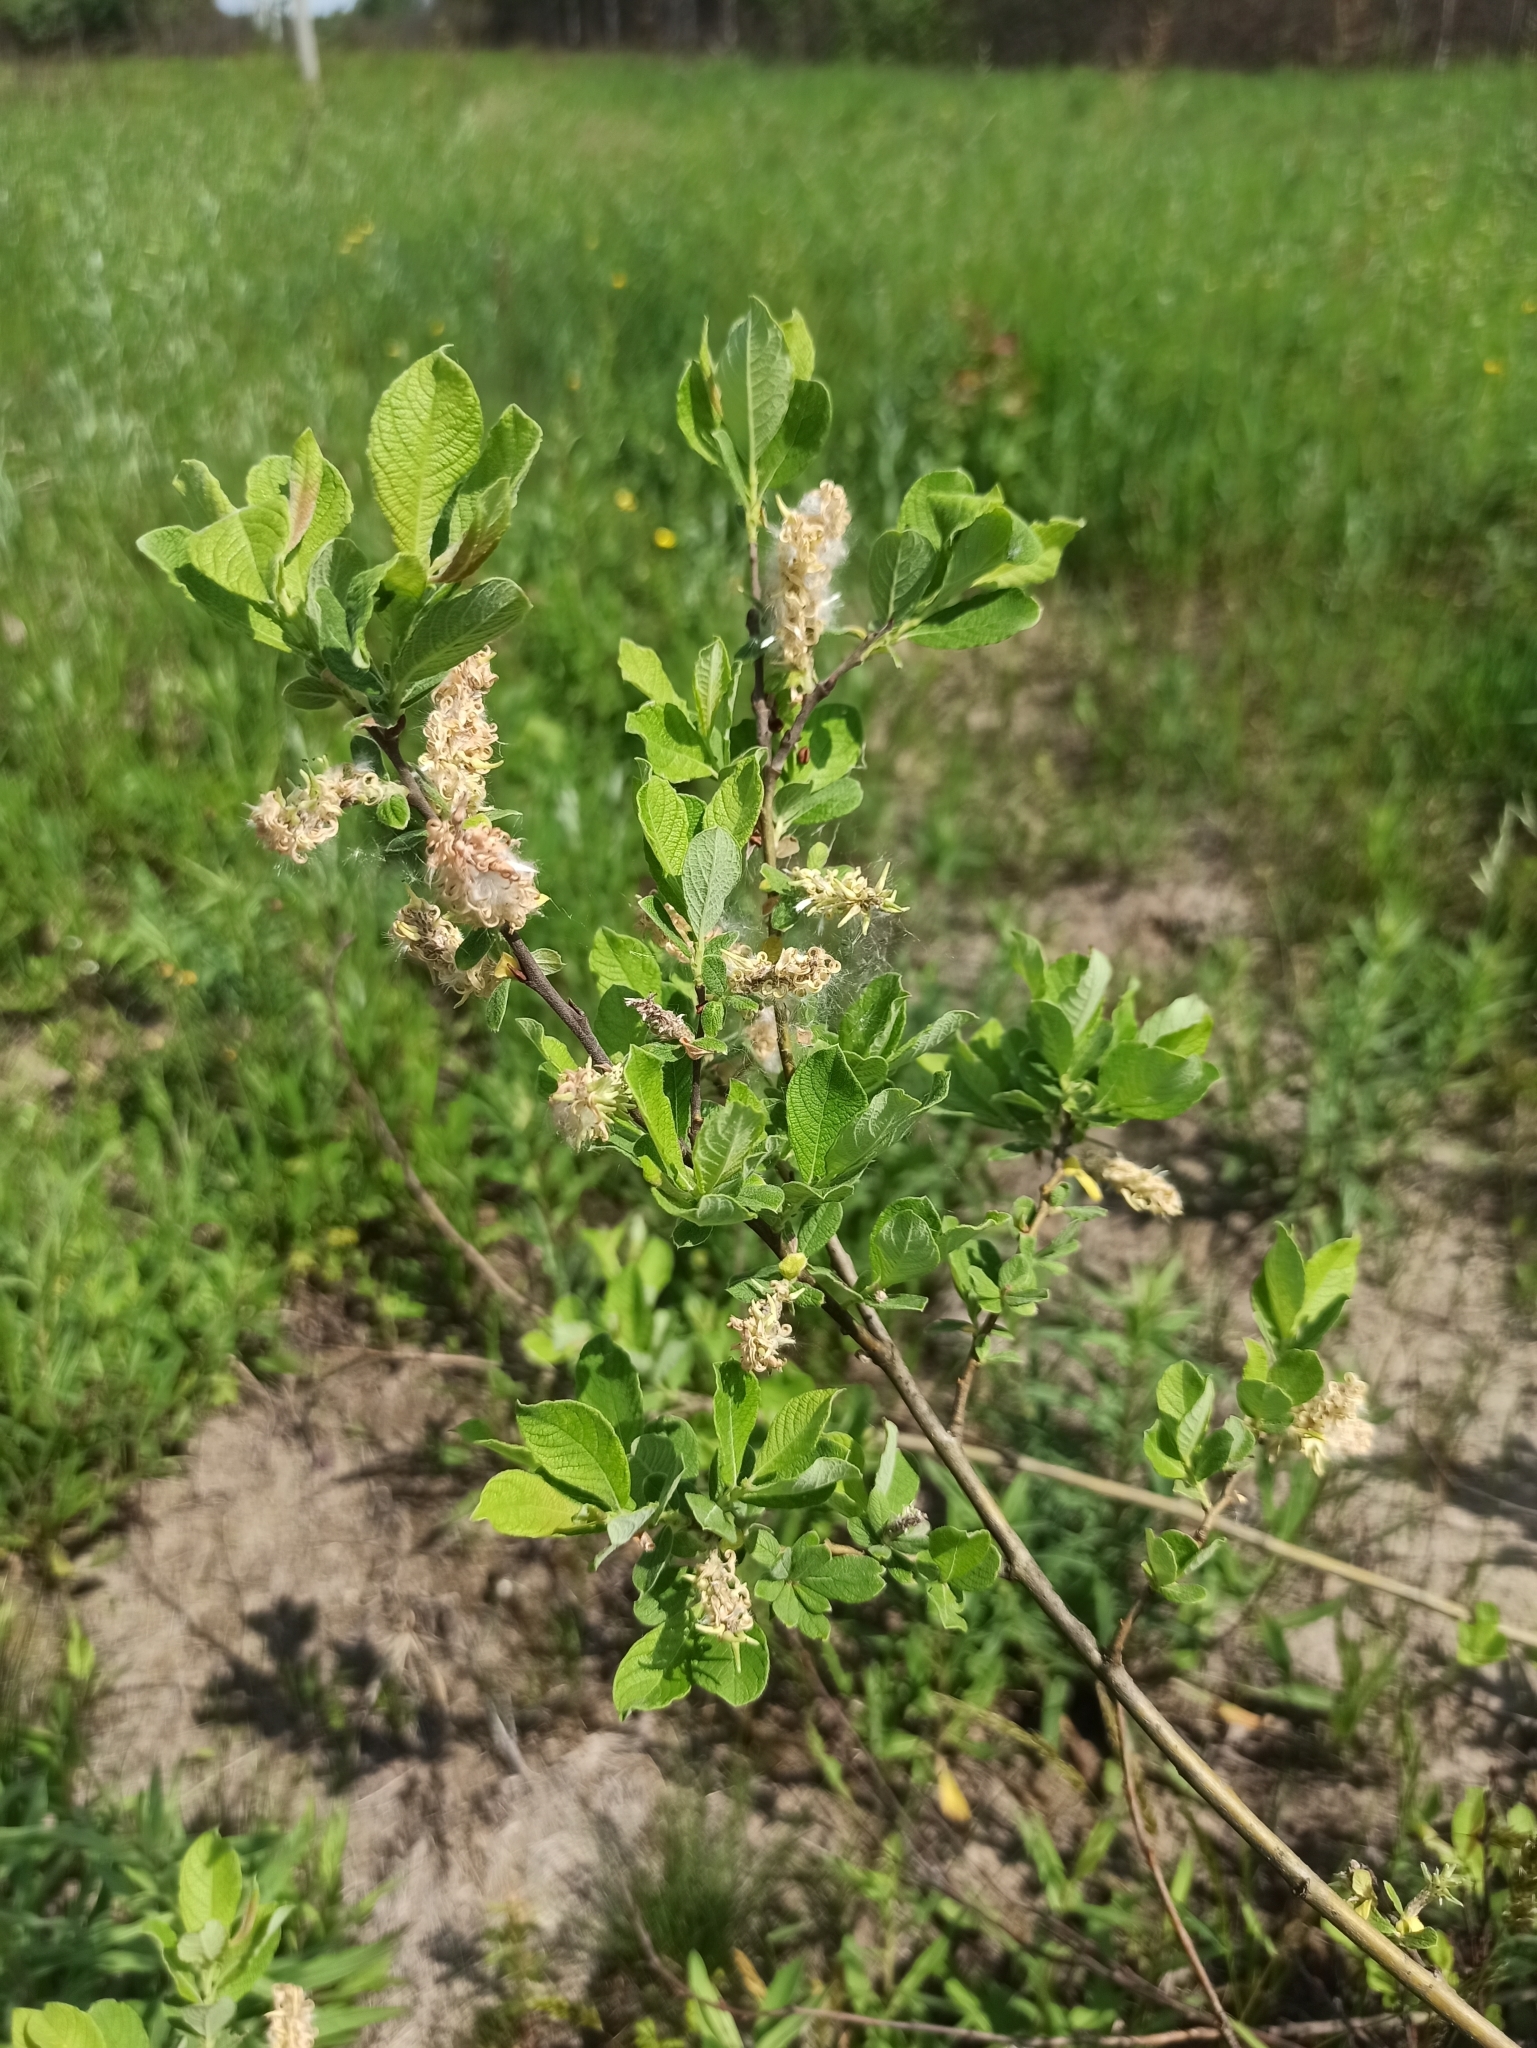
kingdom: Plantae
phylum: Tracheophyta
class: Magnoliopsida
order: Malpighiales
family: Salicaceae
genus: Salix
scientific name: Salix aurita
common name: Eared willow
